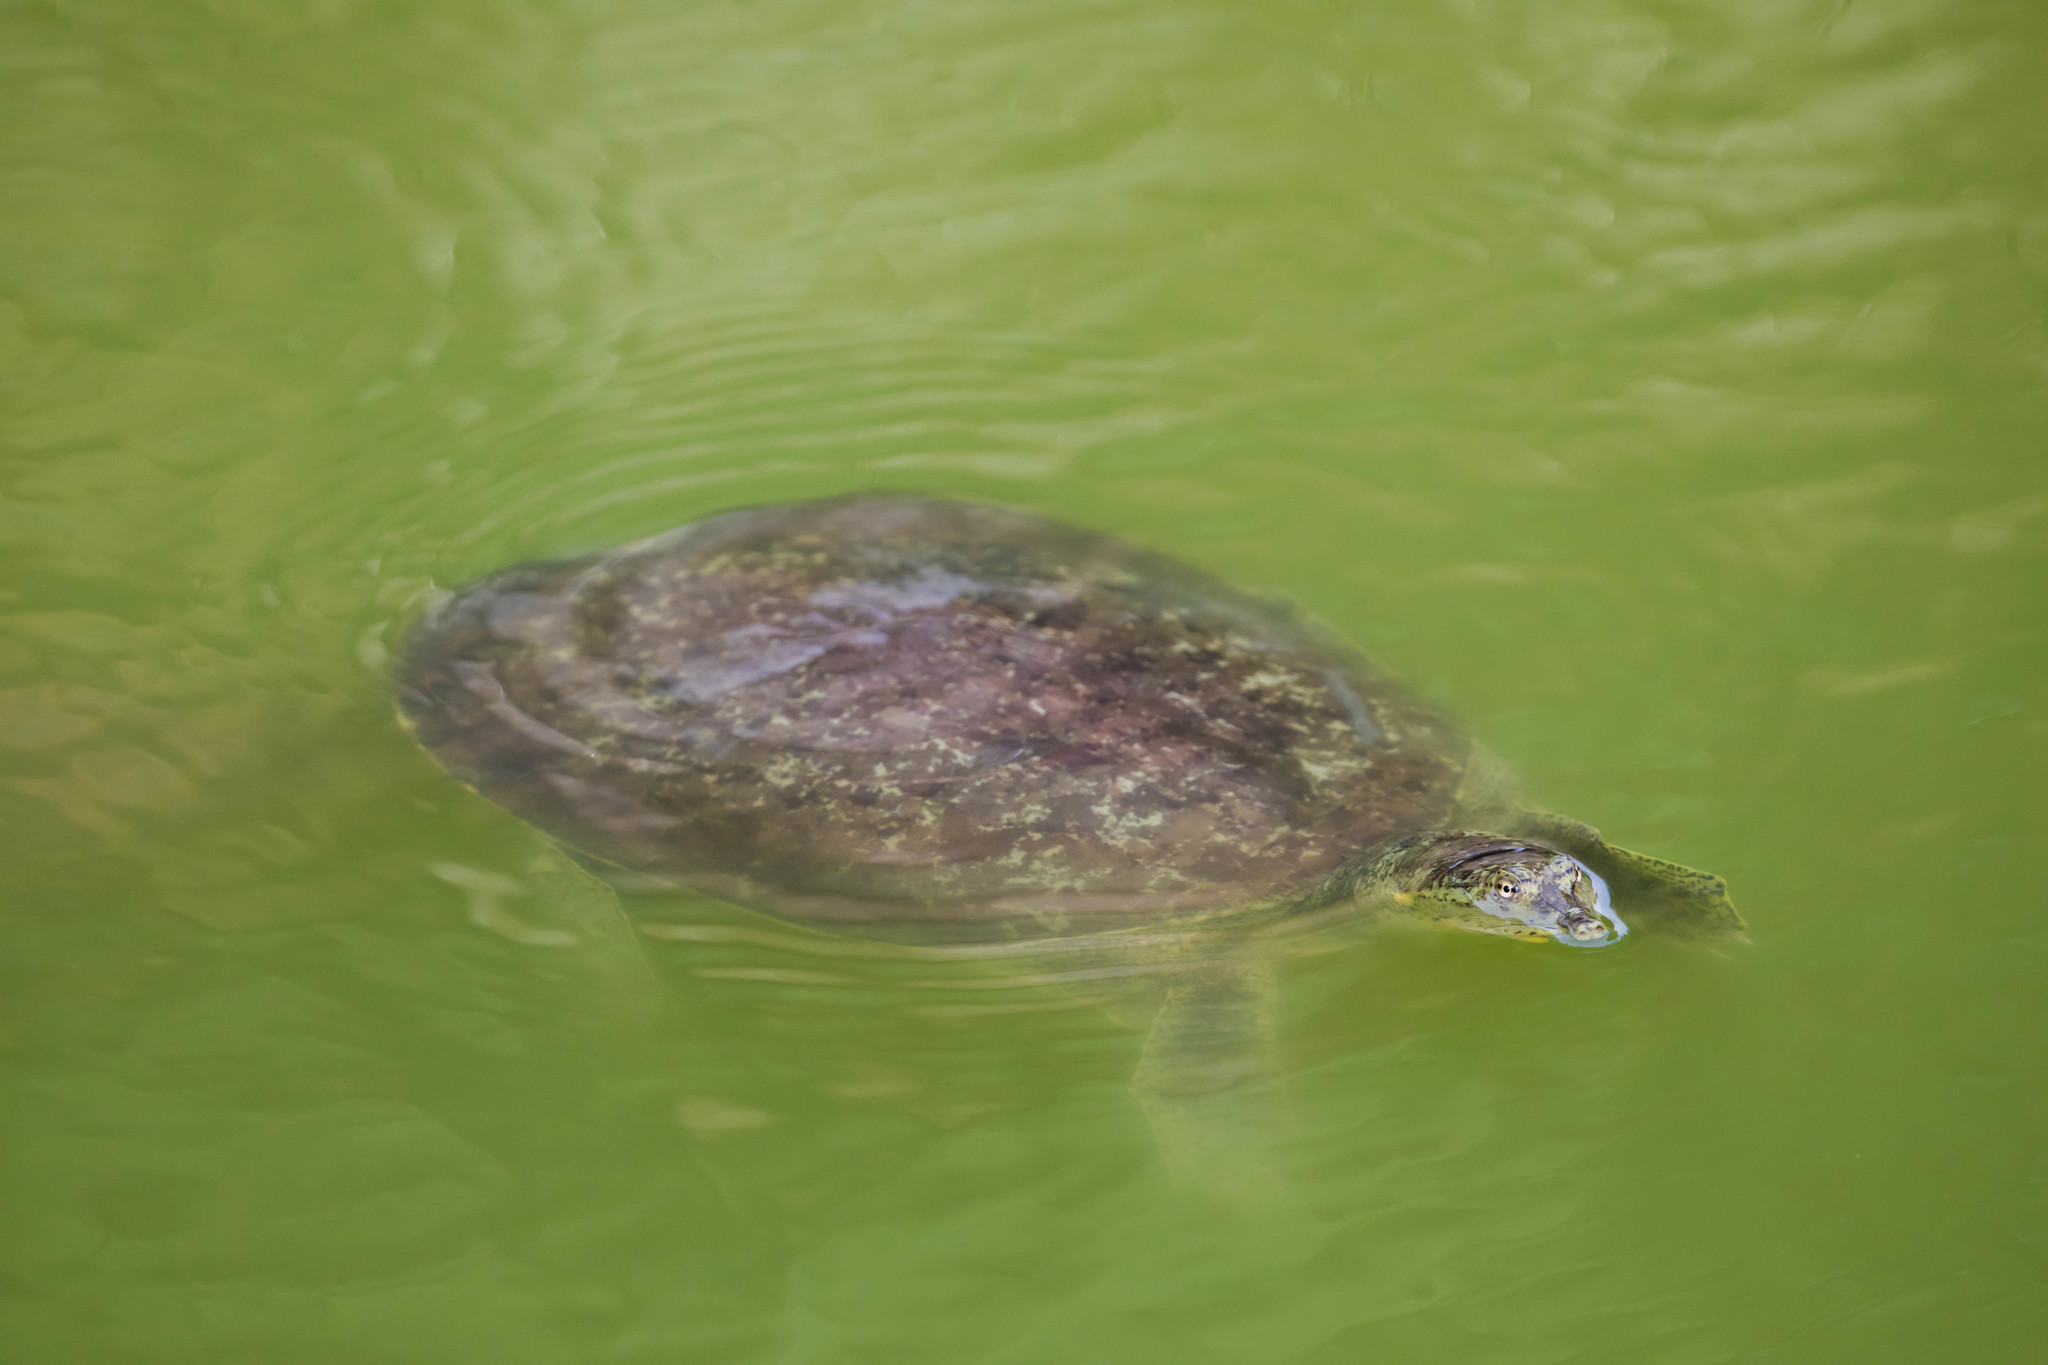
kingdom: Animalia
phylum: Chordata
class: Testudines
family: Trionychidae
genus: Apalone
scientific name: Apalone spinifera
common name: Spiny softshell turtle
